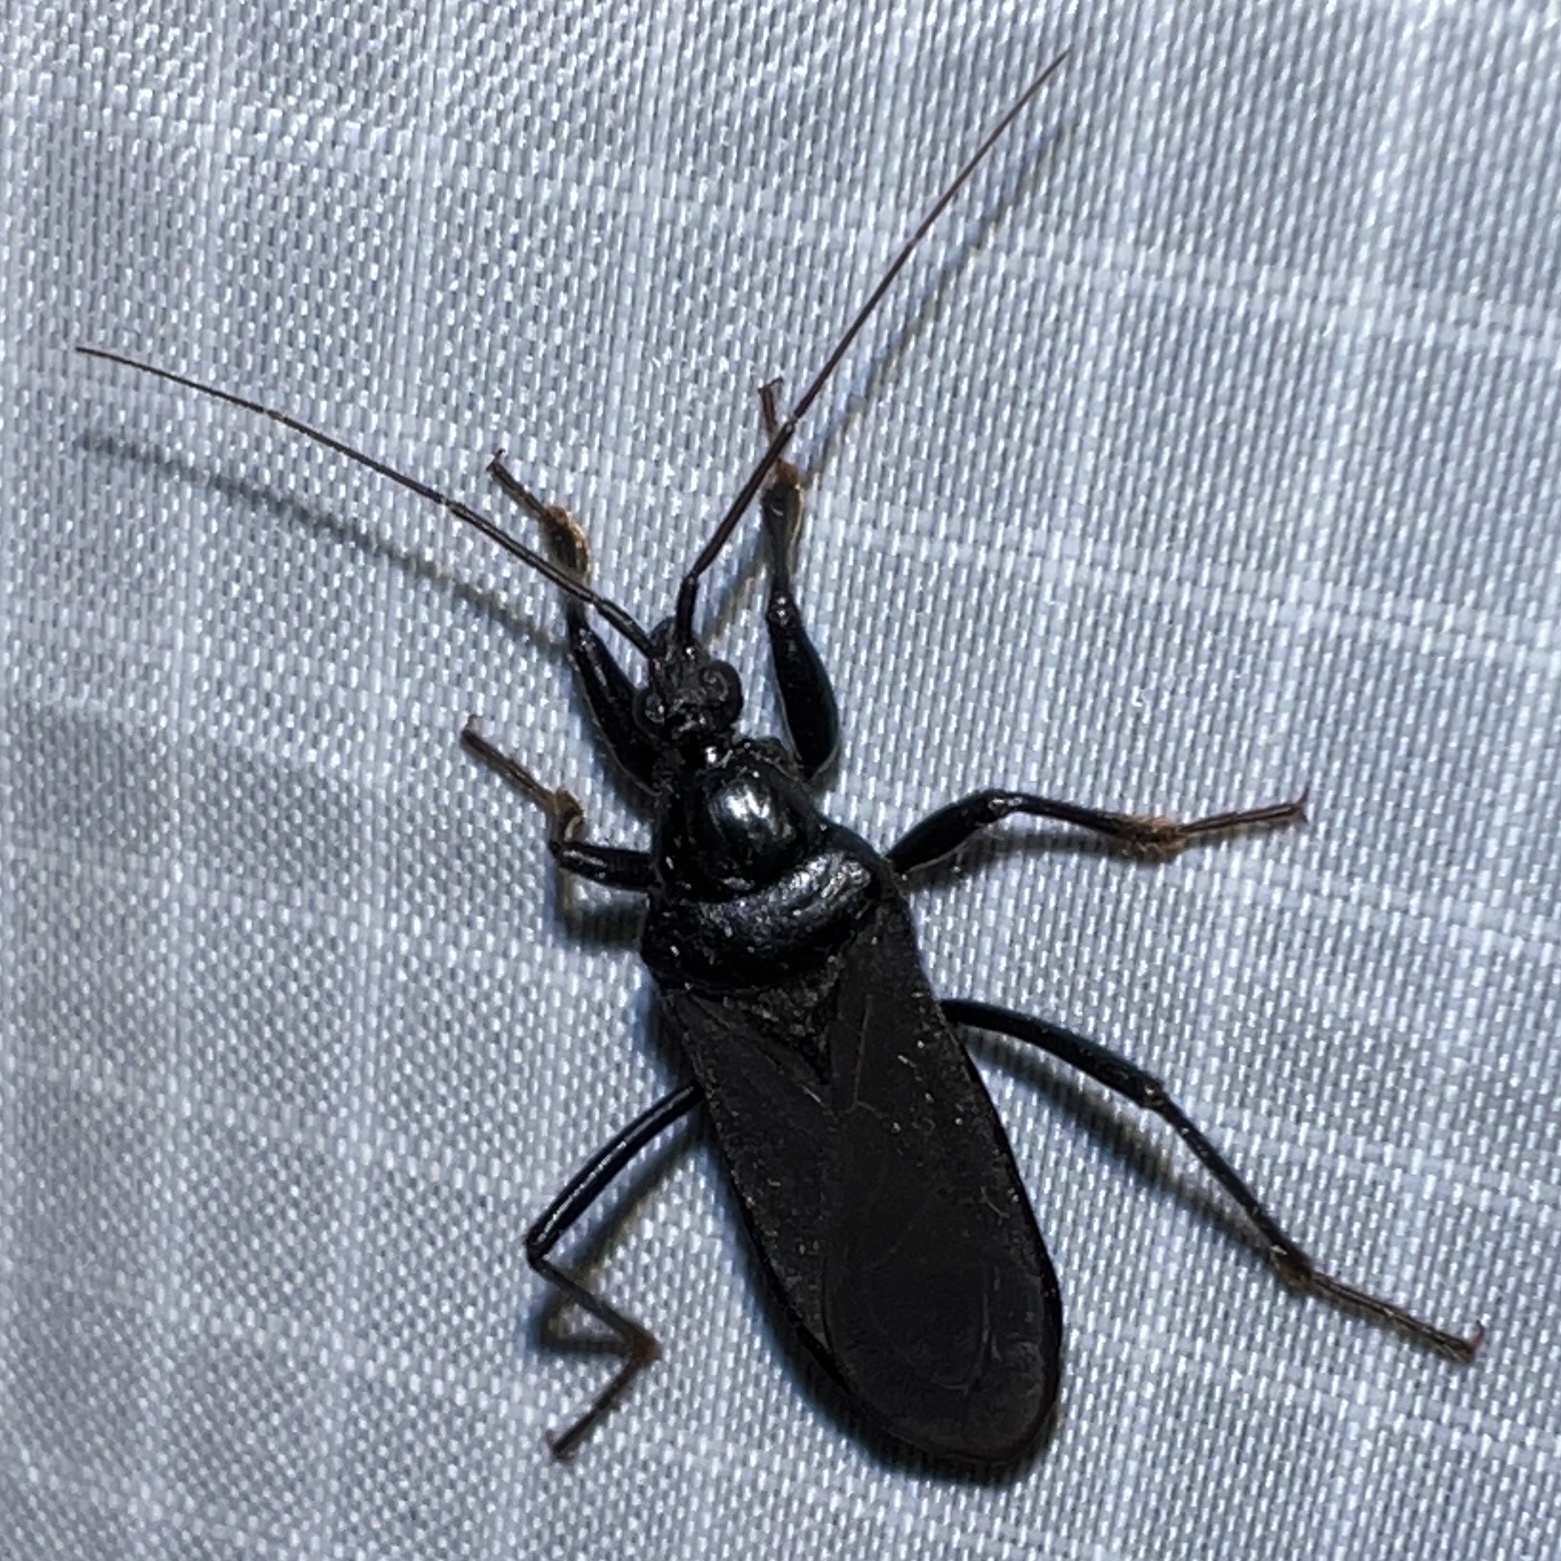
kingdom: Animalia
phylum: Arthropoda
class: Insecta
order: Hemiptera
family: Reduviidae
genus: Melanolestes
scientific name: Melanolestes picipes
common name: Assassin bug
